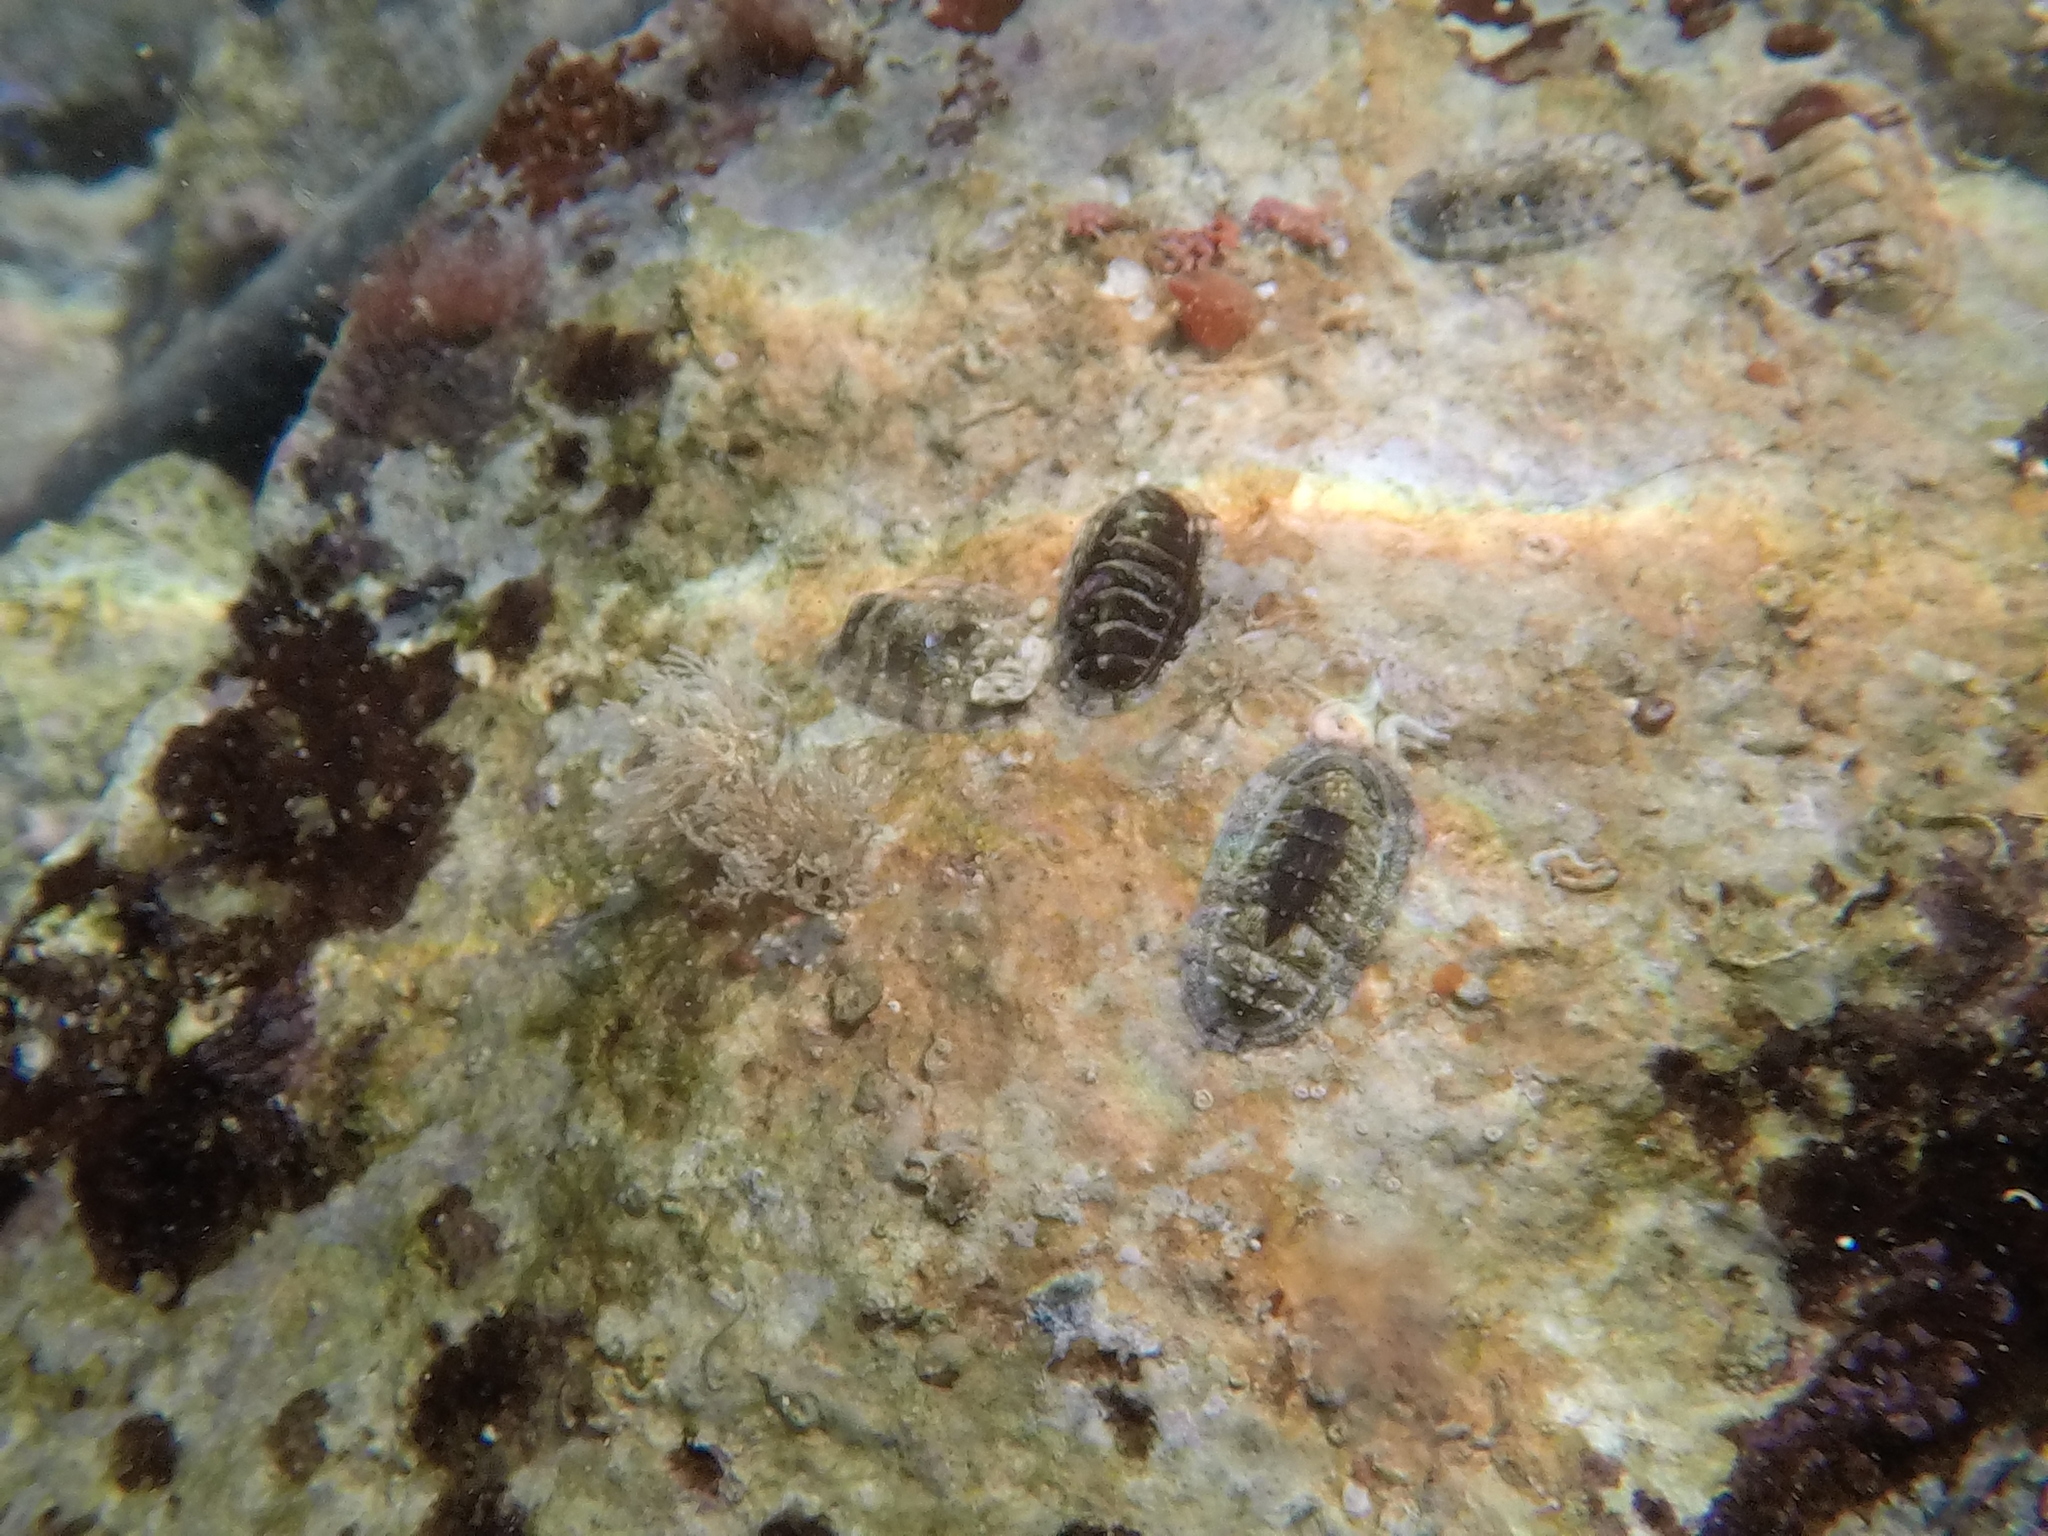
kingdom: Animalia
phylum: Mollusca
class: Polyplacophora
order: Chitonida
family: Chitonidae
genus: Rhyssoplax
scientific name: Rhyssoplax olivacea
